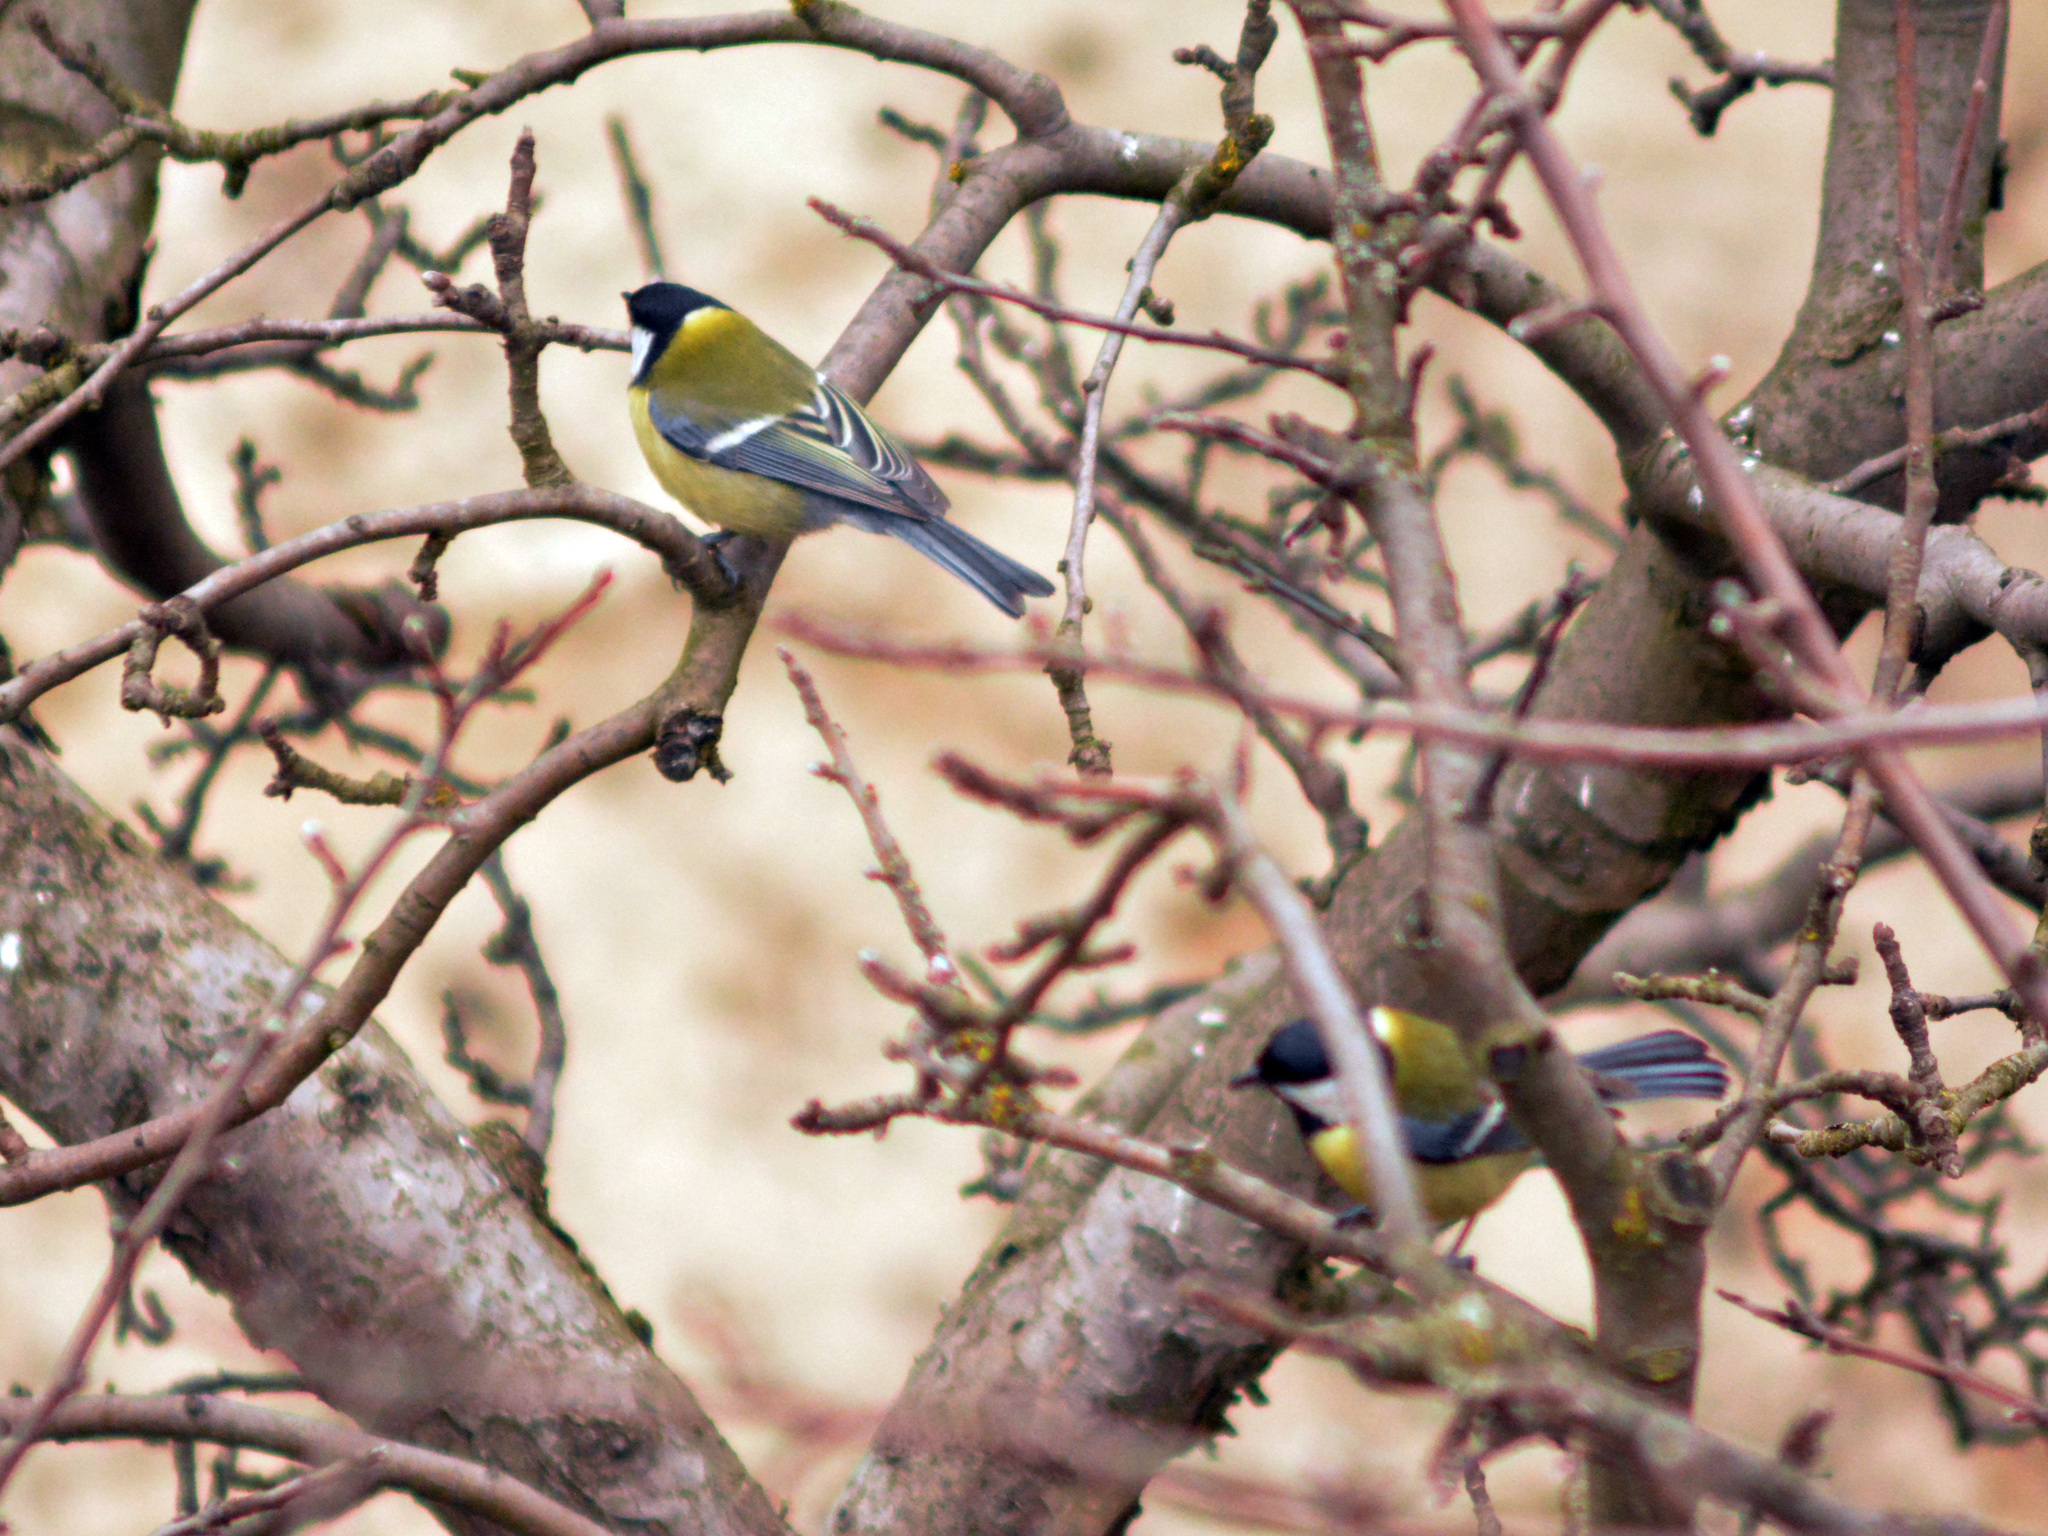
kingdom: Animalia
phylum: Chordata
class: Aves
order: Passeriformes
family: Paridae
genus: Parus
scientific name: Parus major
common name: Great tit
